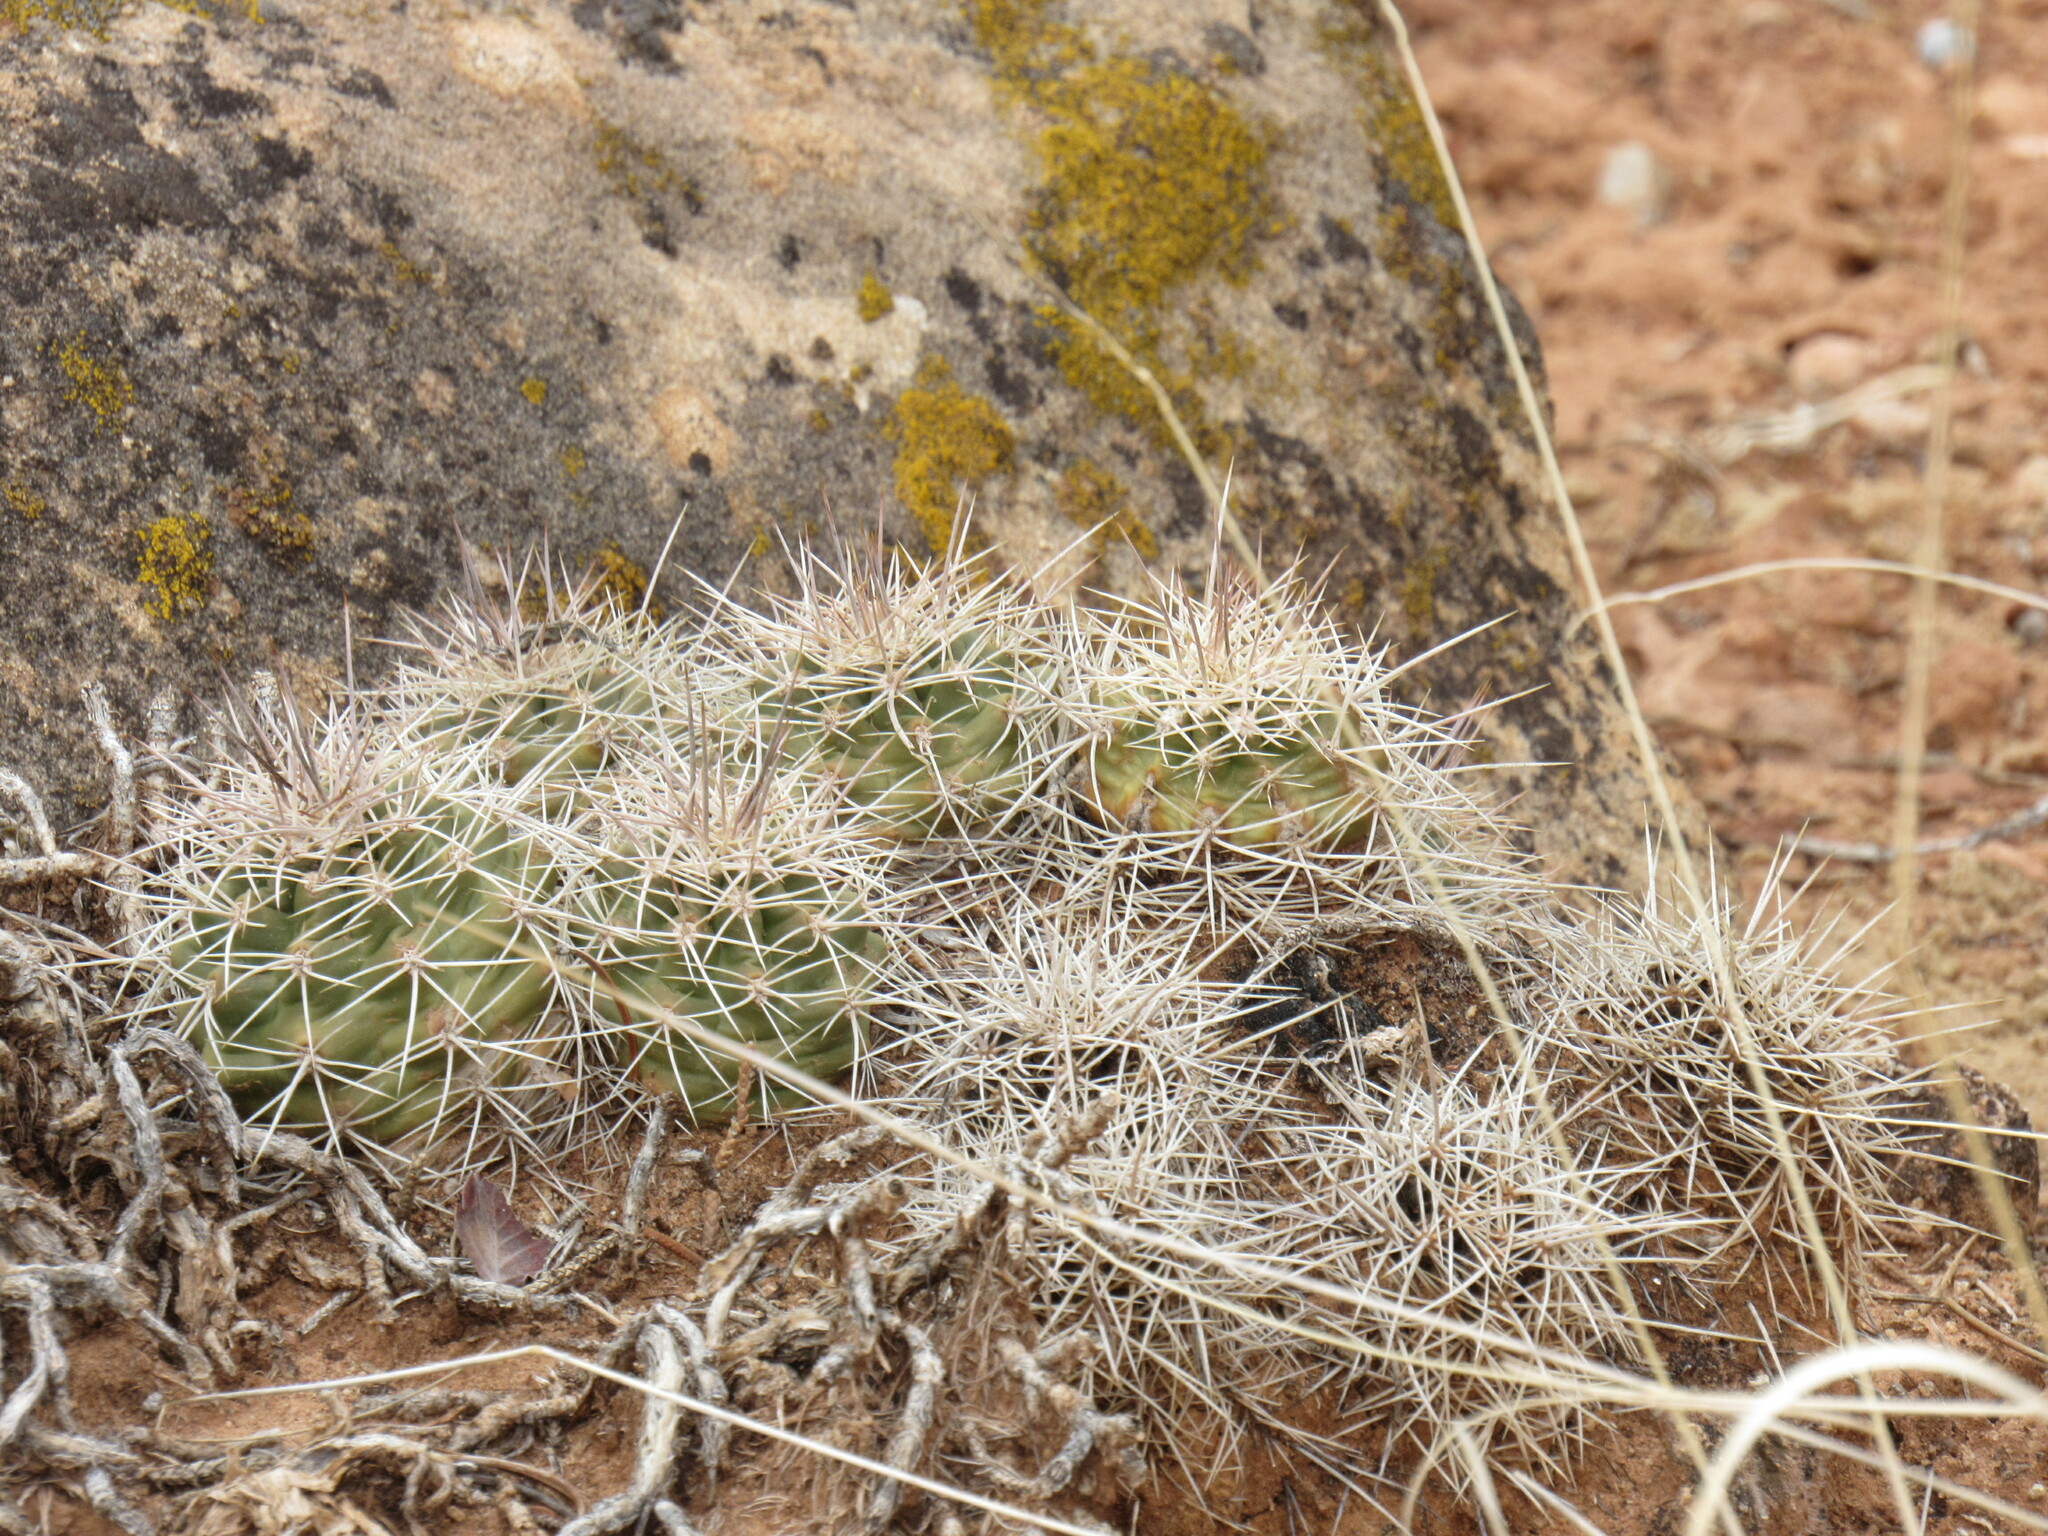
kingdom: Plantae
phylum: Tracheophyta
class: Magnoliopsida
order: Caryophyllales
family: Cactaceae
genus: Echinocereus
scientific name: Echinocereus triglochidiatus
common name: Claretcup hedgehog
